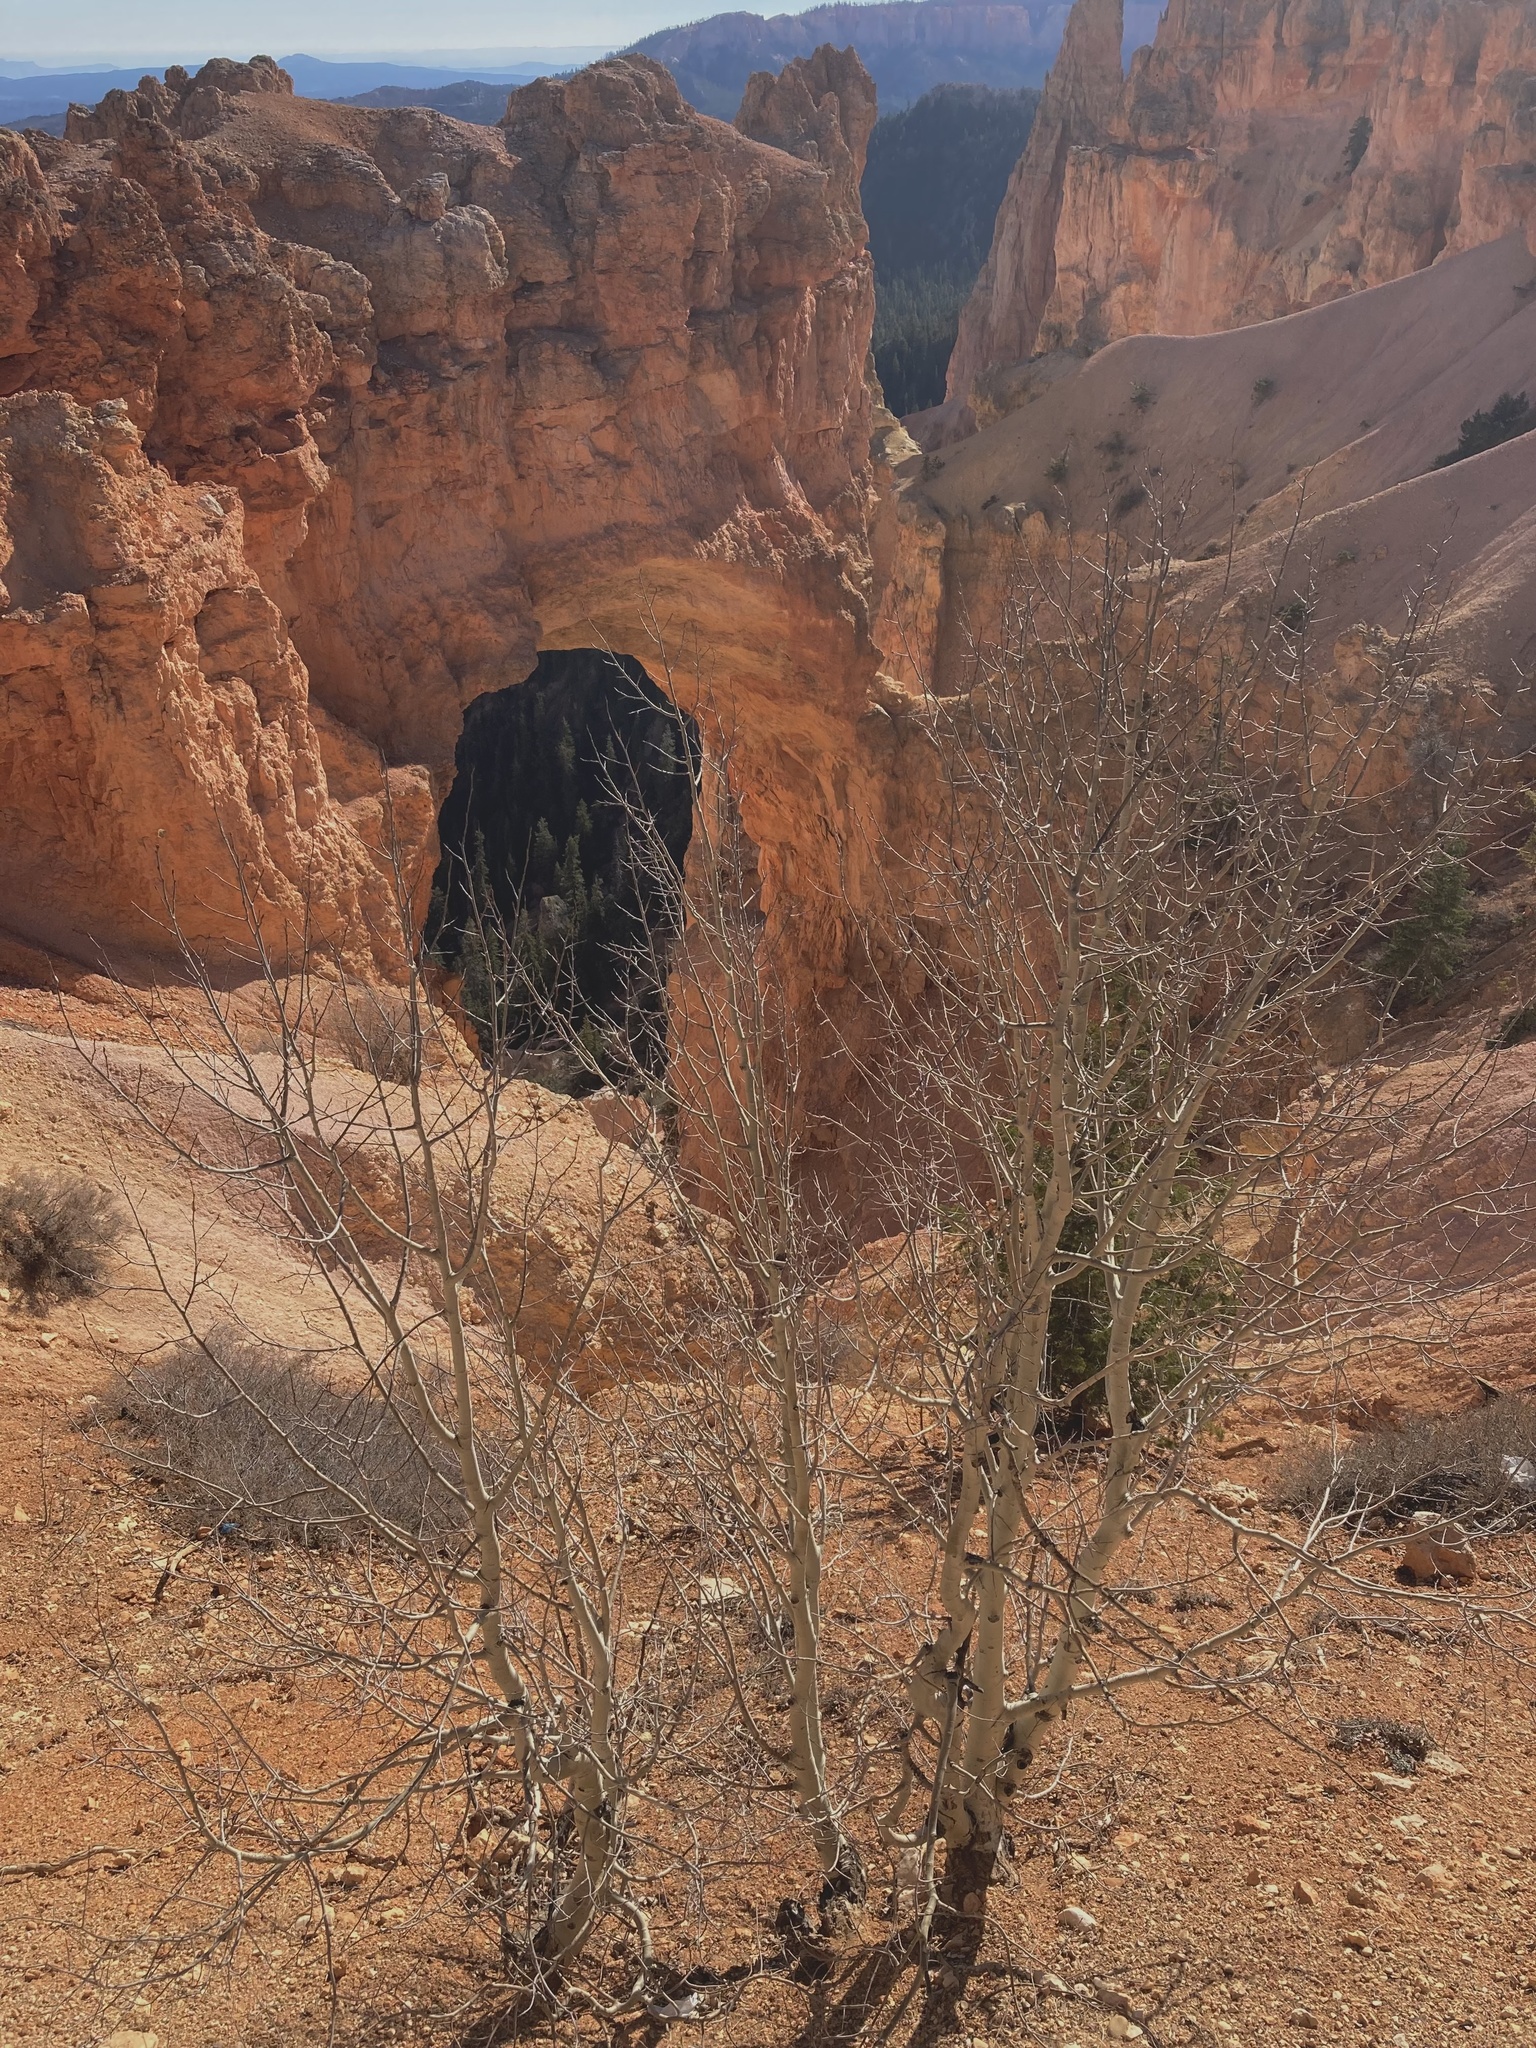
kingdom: Plantae
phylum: Tracheophyta
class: Magnoliopsida
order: Malpighiales
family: Salicaceae
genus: Populus
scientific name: Populus tremuloides
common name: Quaking aspen
